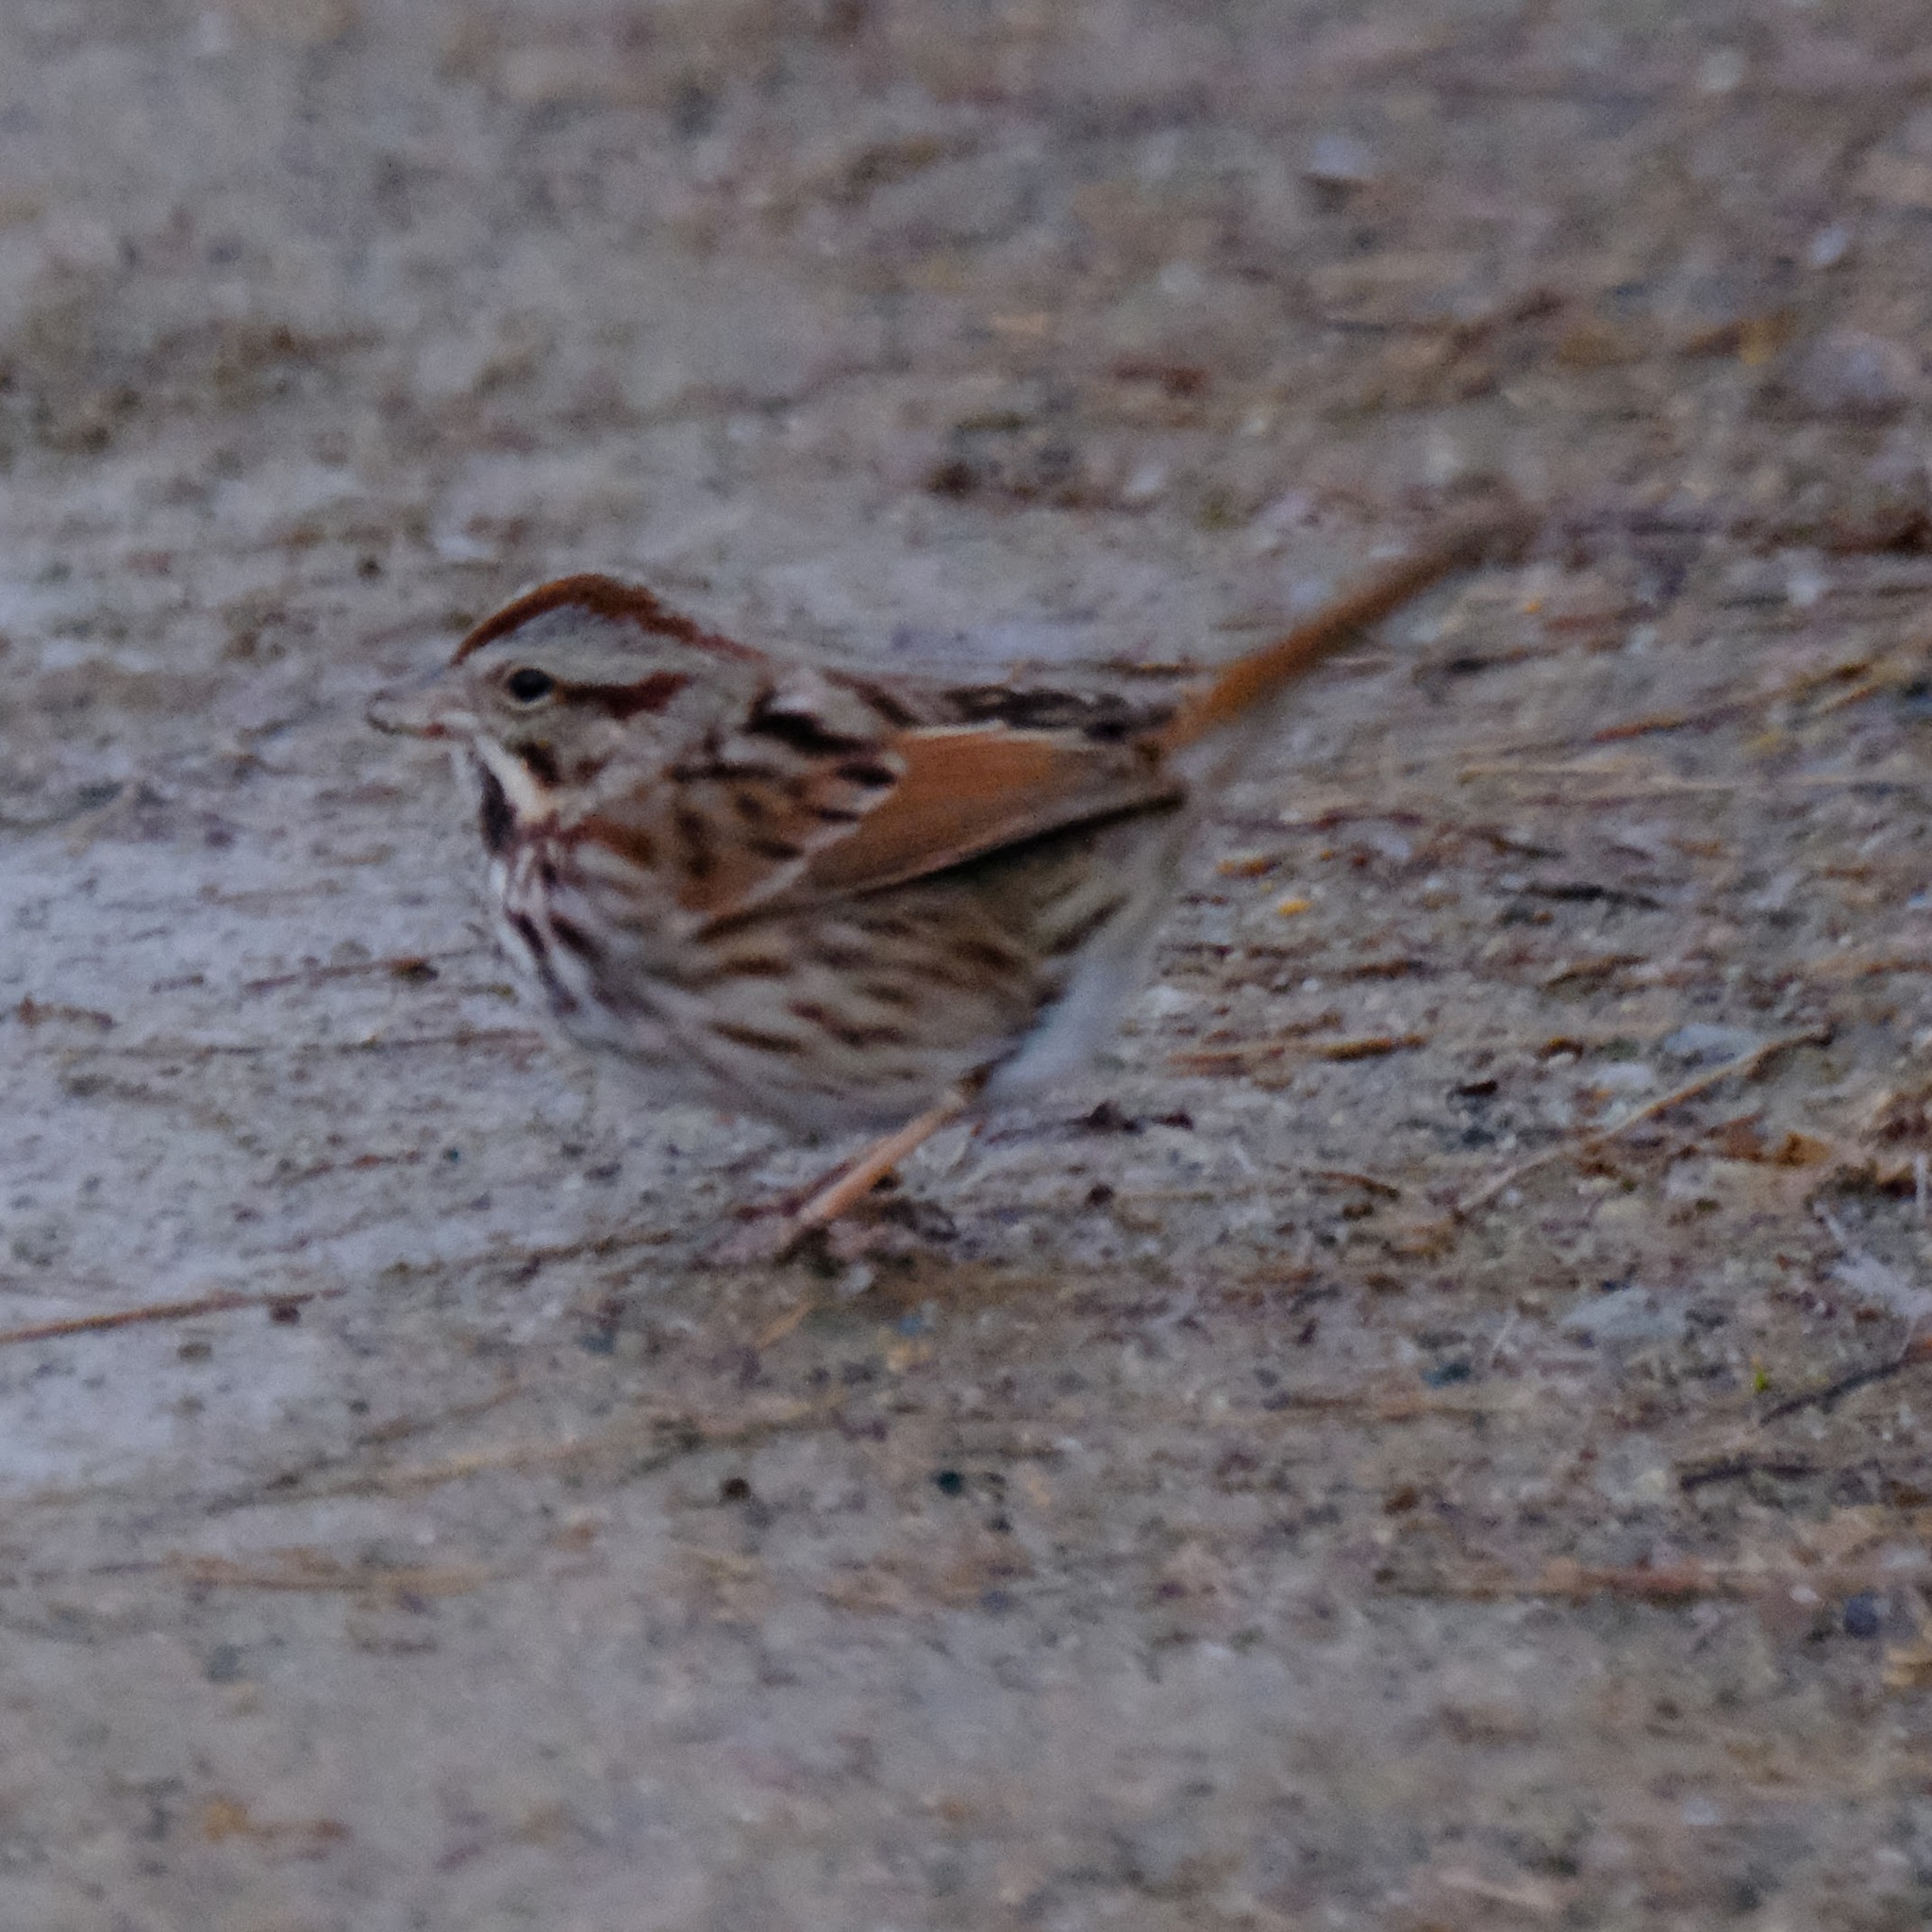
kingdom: Animalia
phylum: Chordata
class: Aves
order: Passeriformes
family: Passerellidae
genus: Melospiza
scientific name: Melospiza melodia
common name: Song sparrow
